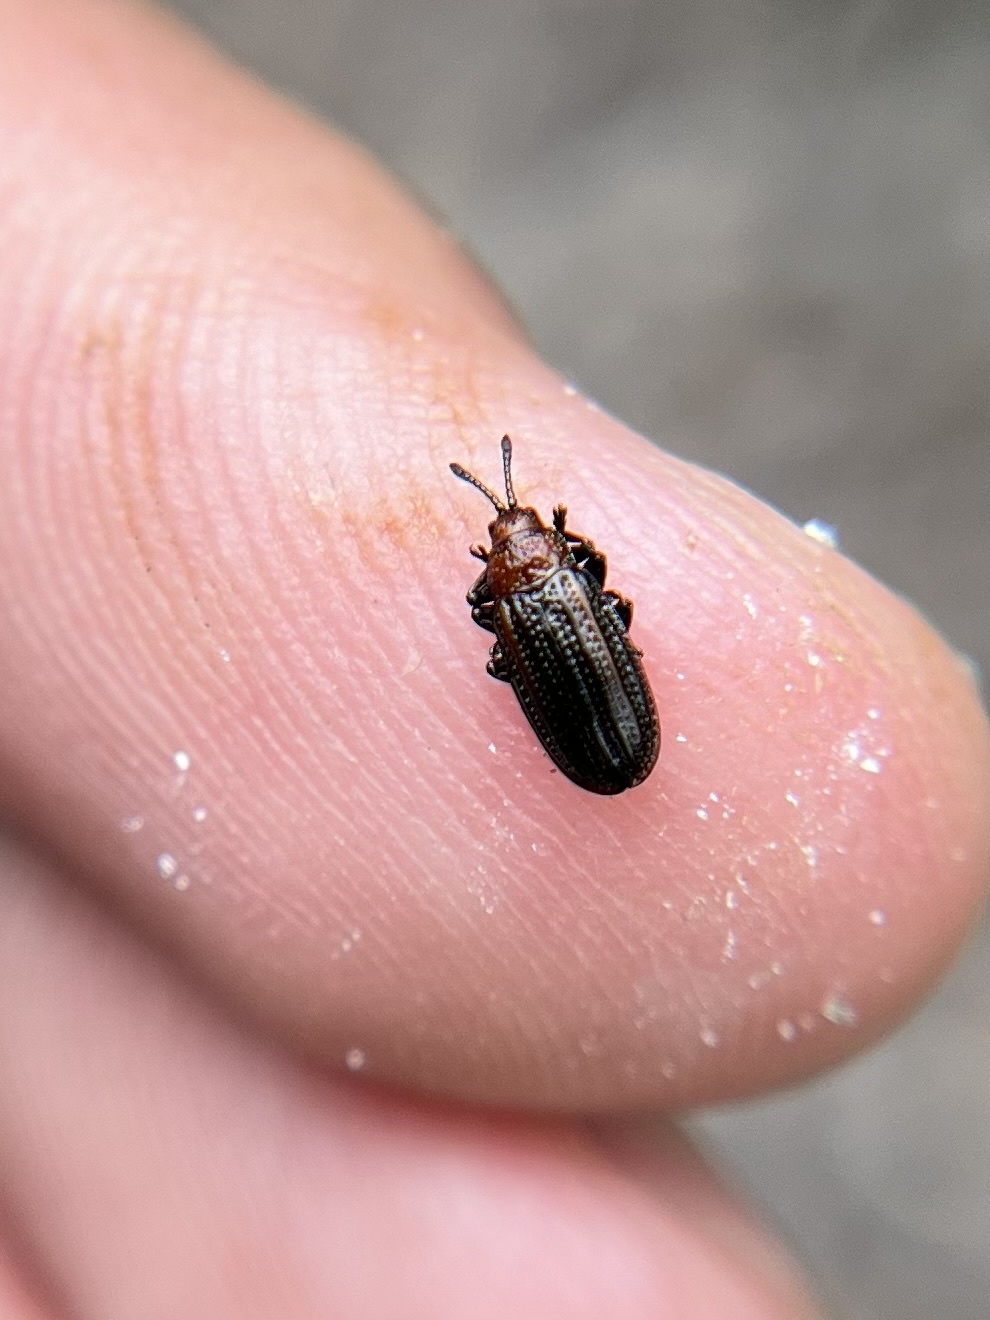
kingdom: Animalia
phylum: Arthropoda
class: Insecta
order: Coleoptera
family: Chrysomelidae
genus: Microrhopala
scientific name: Microrhopala vittata
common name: Goldenrod leaf miner beetle
